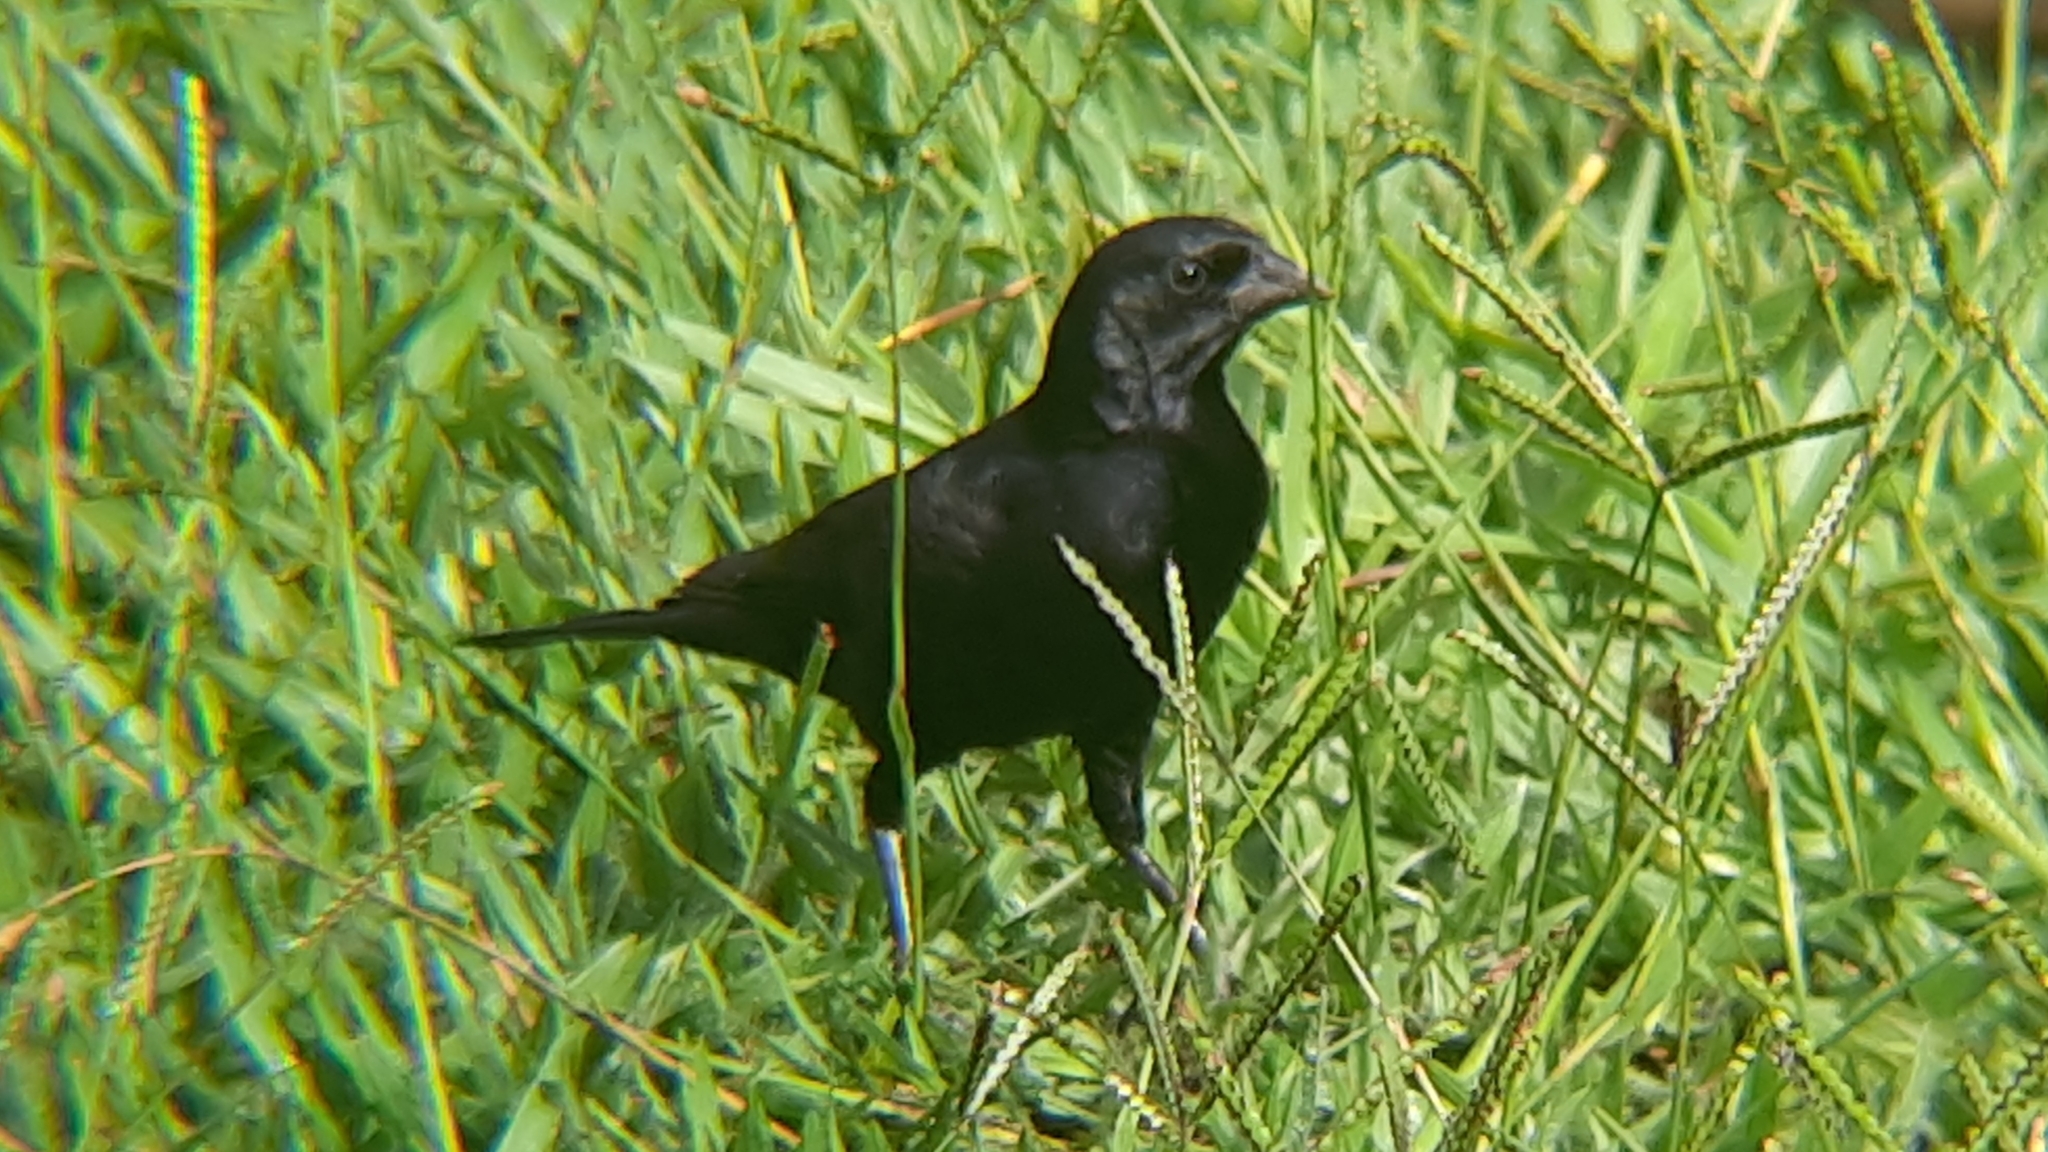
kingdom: Animalia
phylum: Chordata
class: Aves
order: Passeriformes
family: Icteridae
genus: Molothrus
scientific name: Molothrus rufoaxillaris
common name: Screaming cowbird
